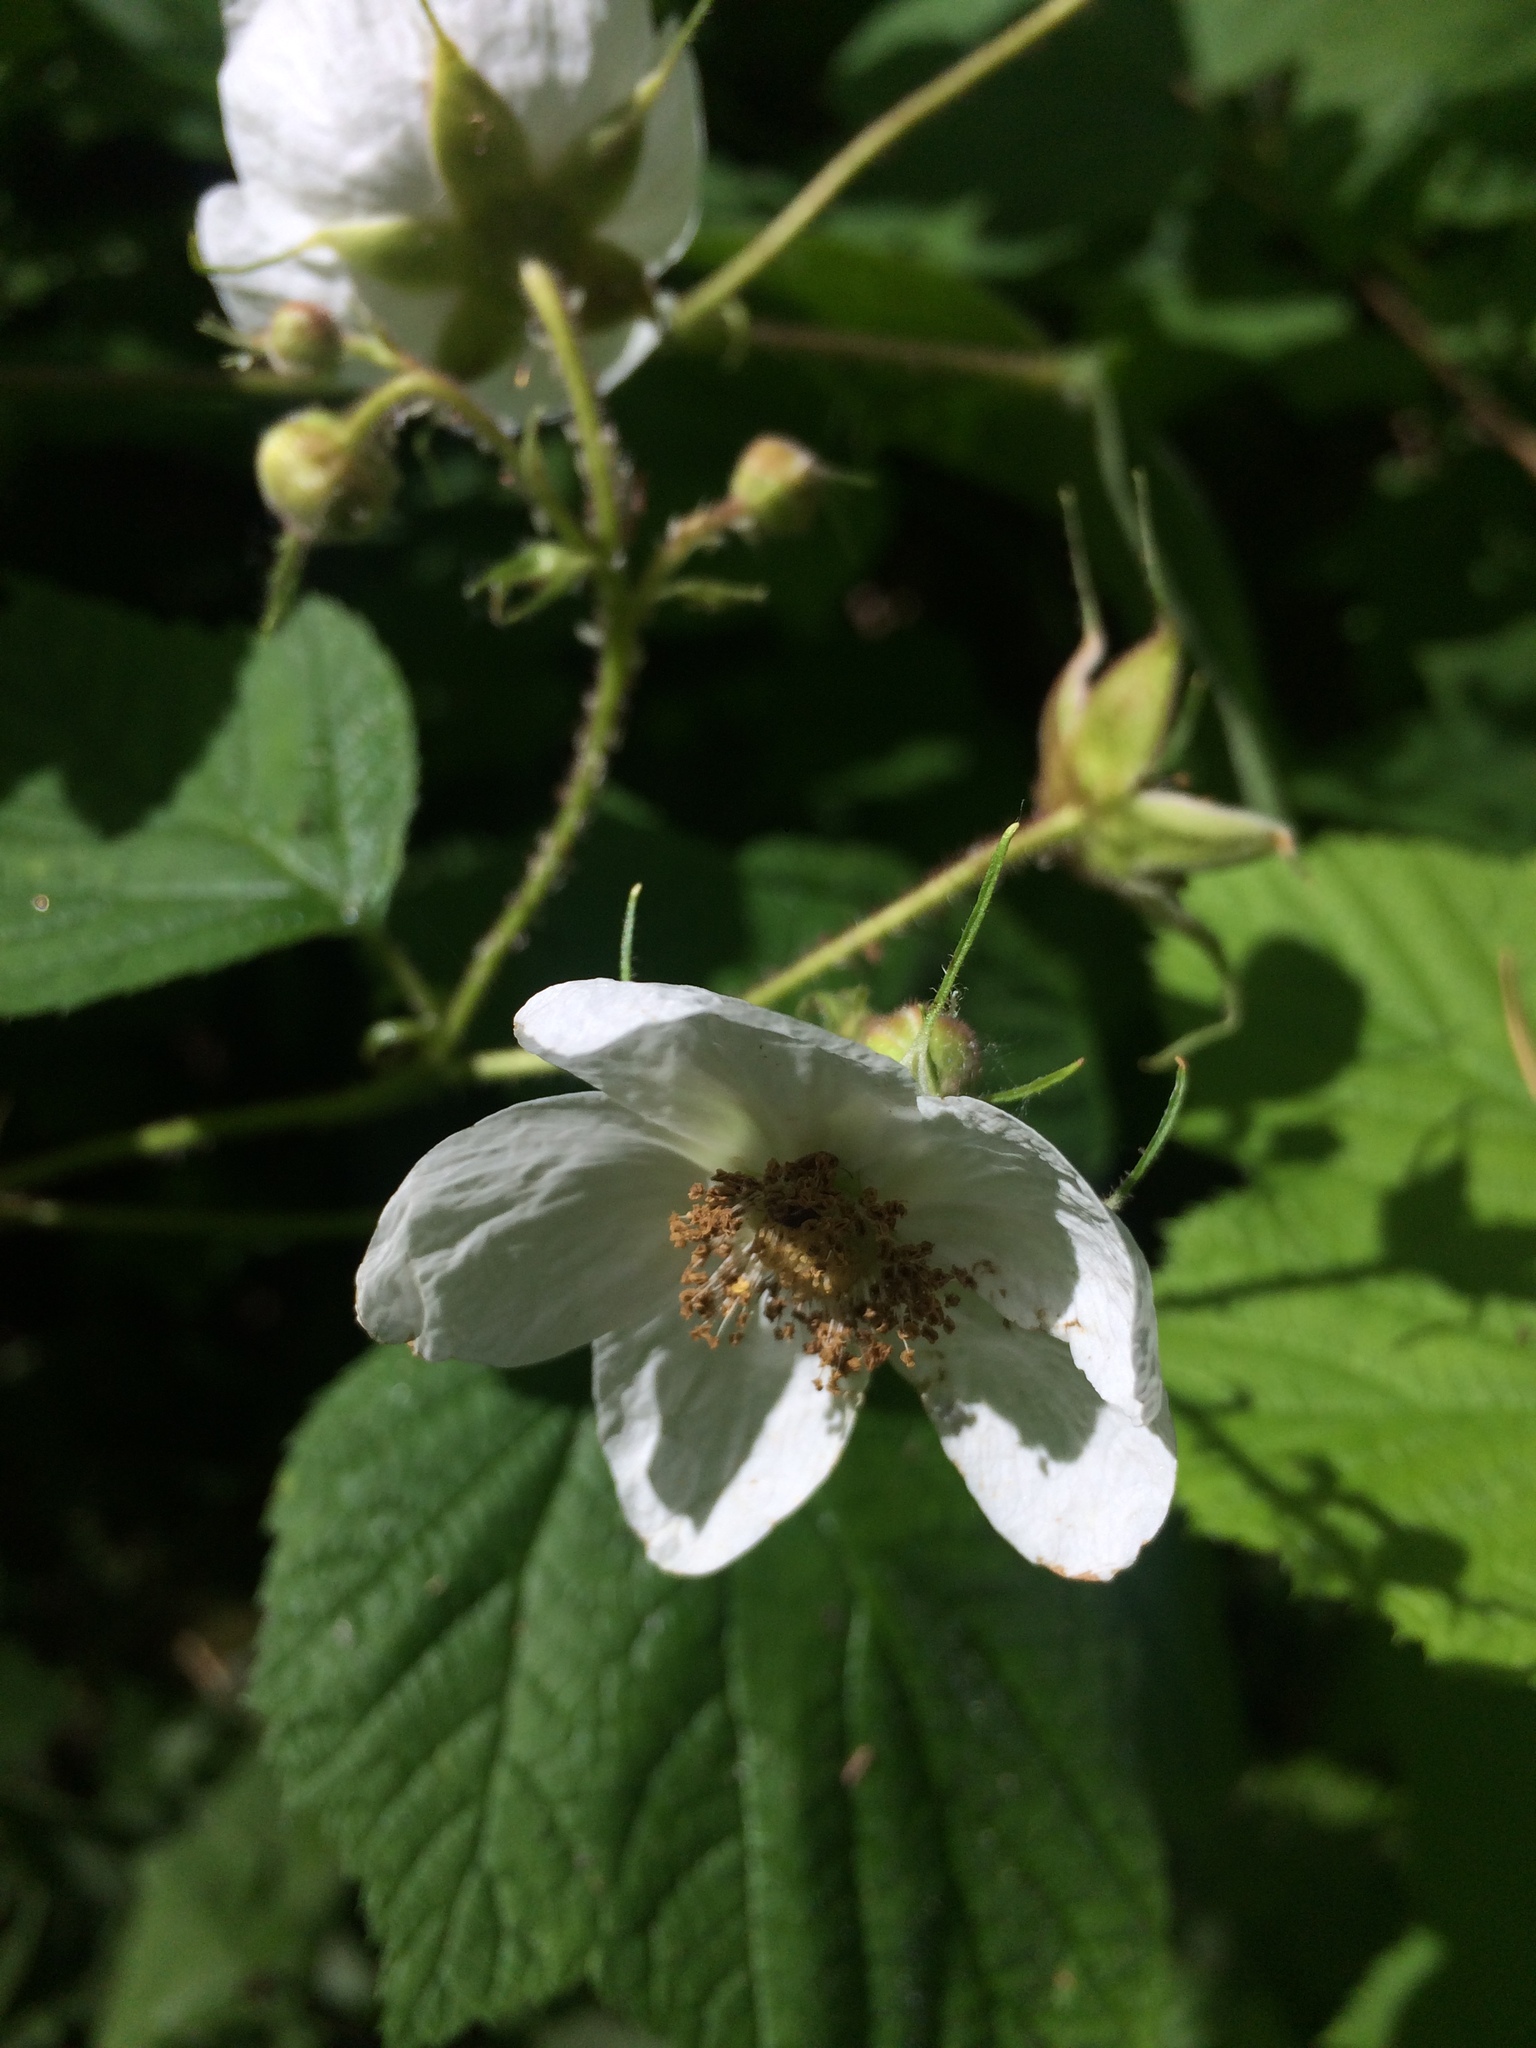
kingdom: Plantae
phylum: Tracheophyta
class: Magnoliopsida
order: Rosales
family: Rosaceae
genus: Rubus
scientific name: Rubus parviflorus
